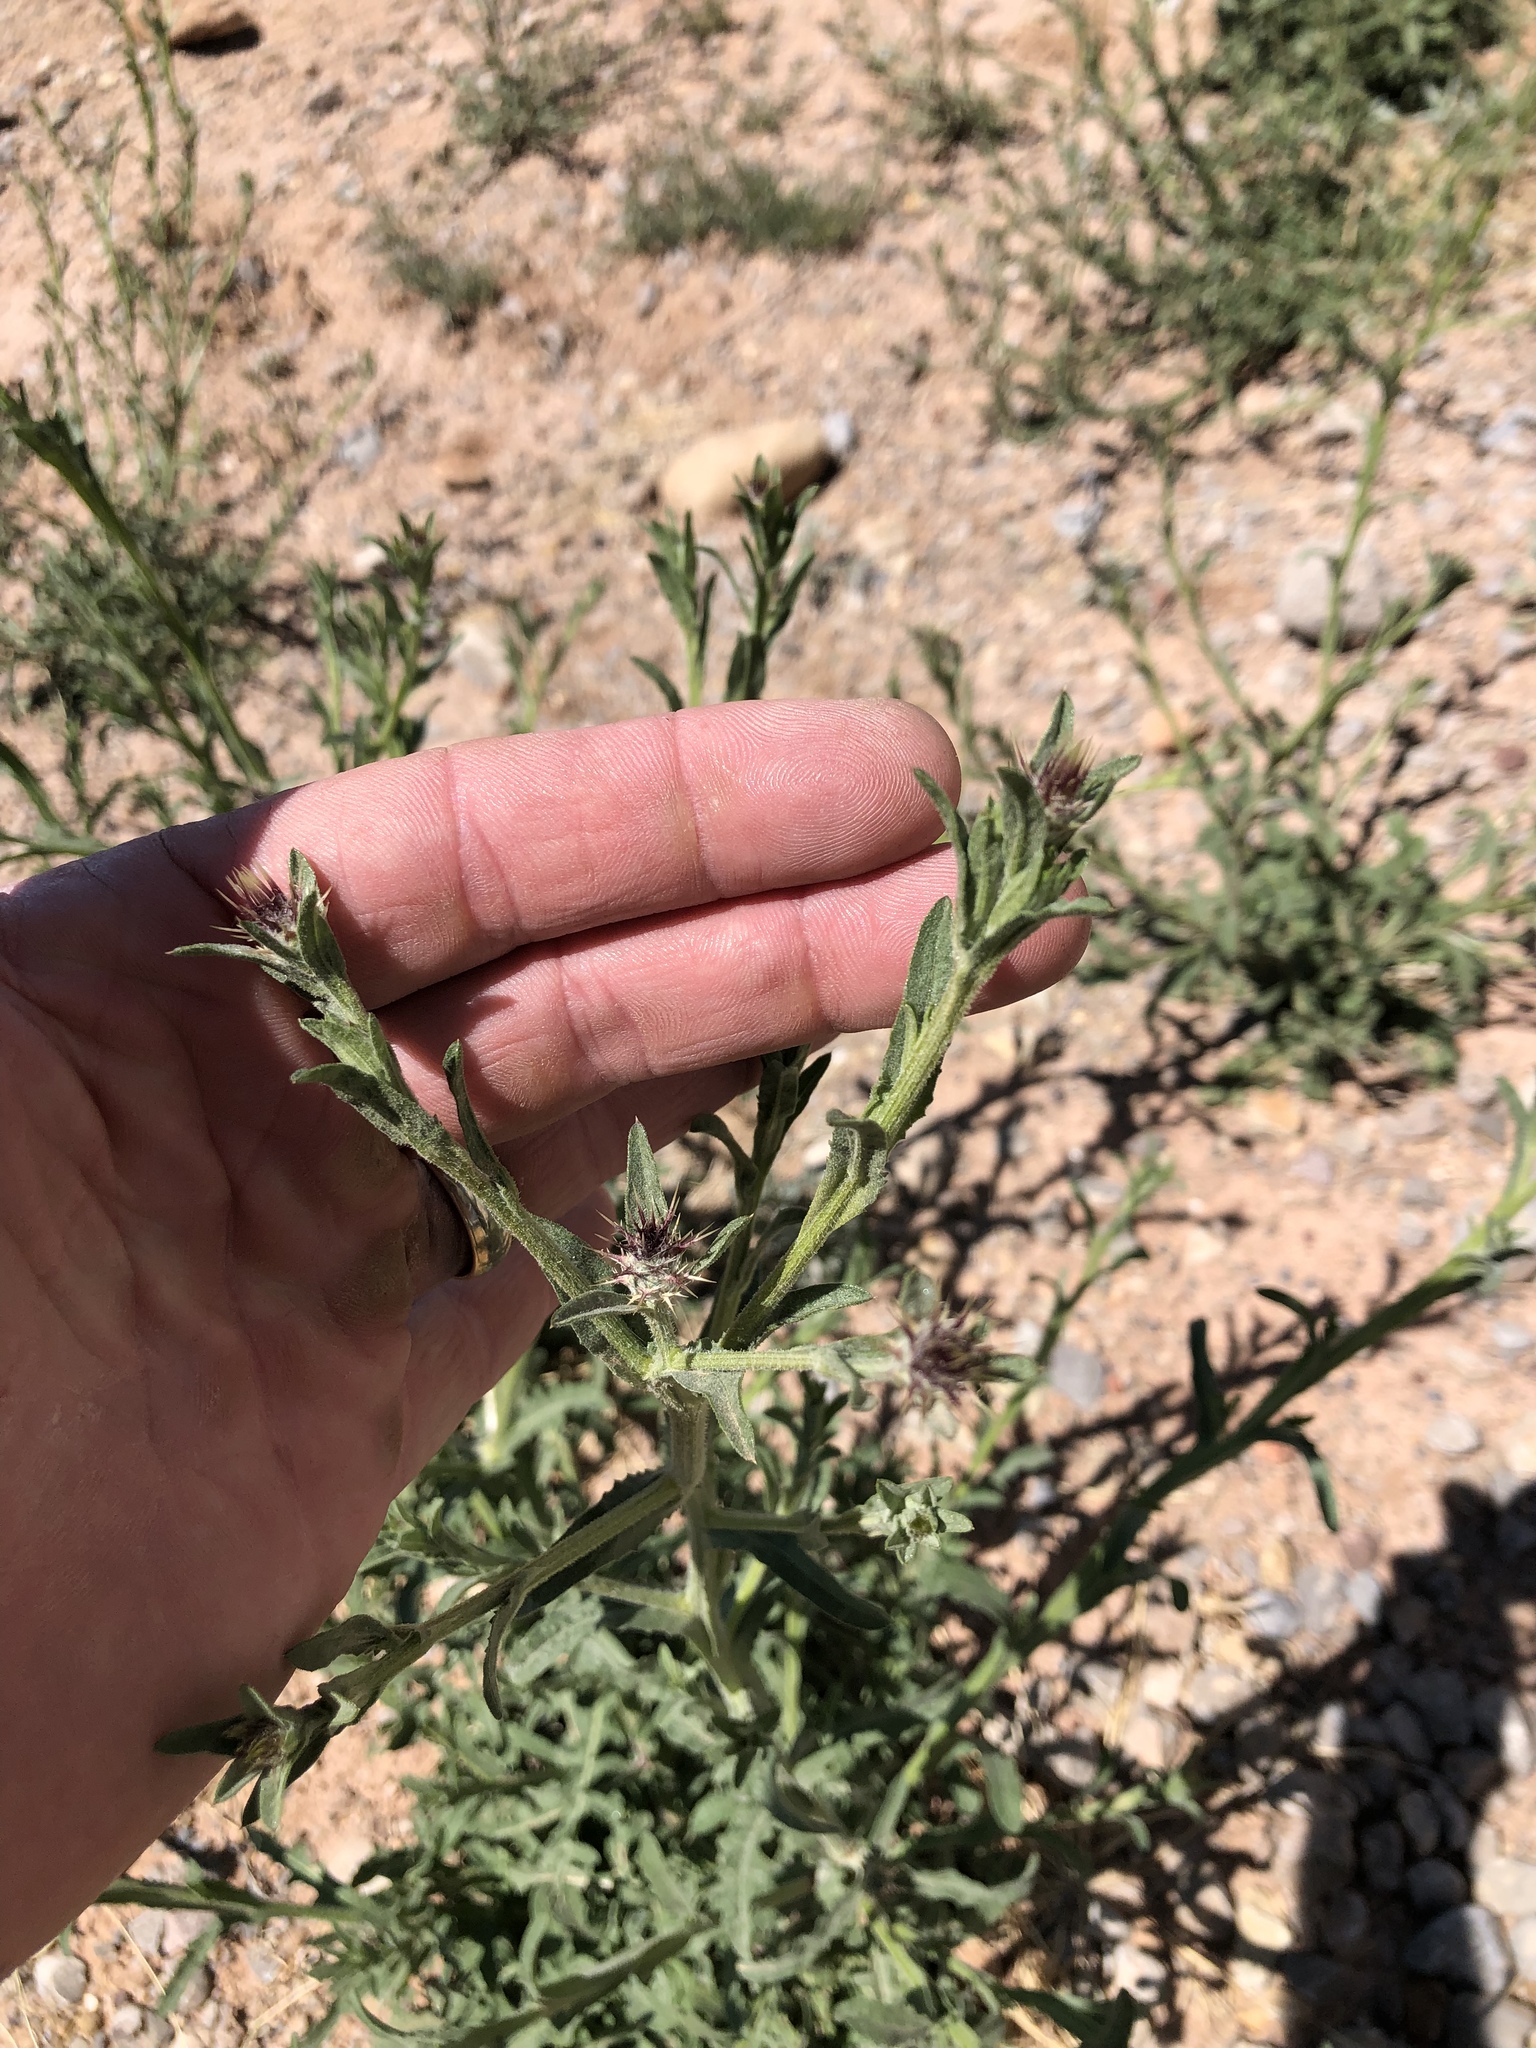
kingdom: Plantae
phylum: Tracheophyta
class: Magnoliopsida
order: Asterales
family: Asteraceae
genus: Centaurea
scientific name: Centaurea melitensis
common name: Maltese star-thistle
